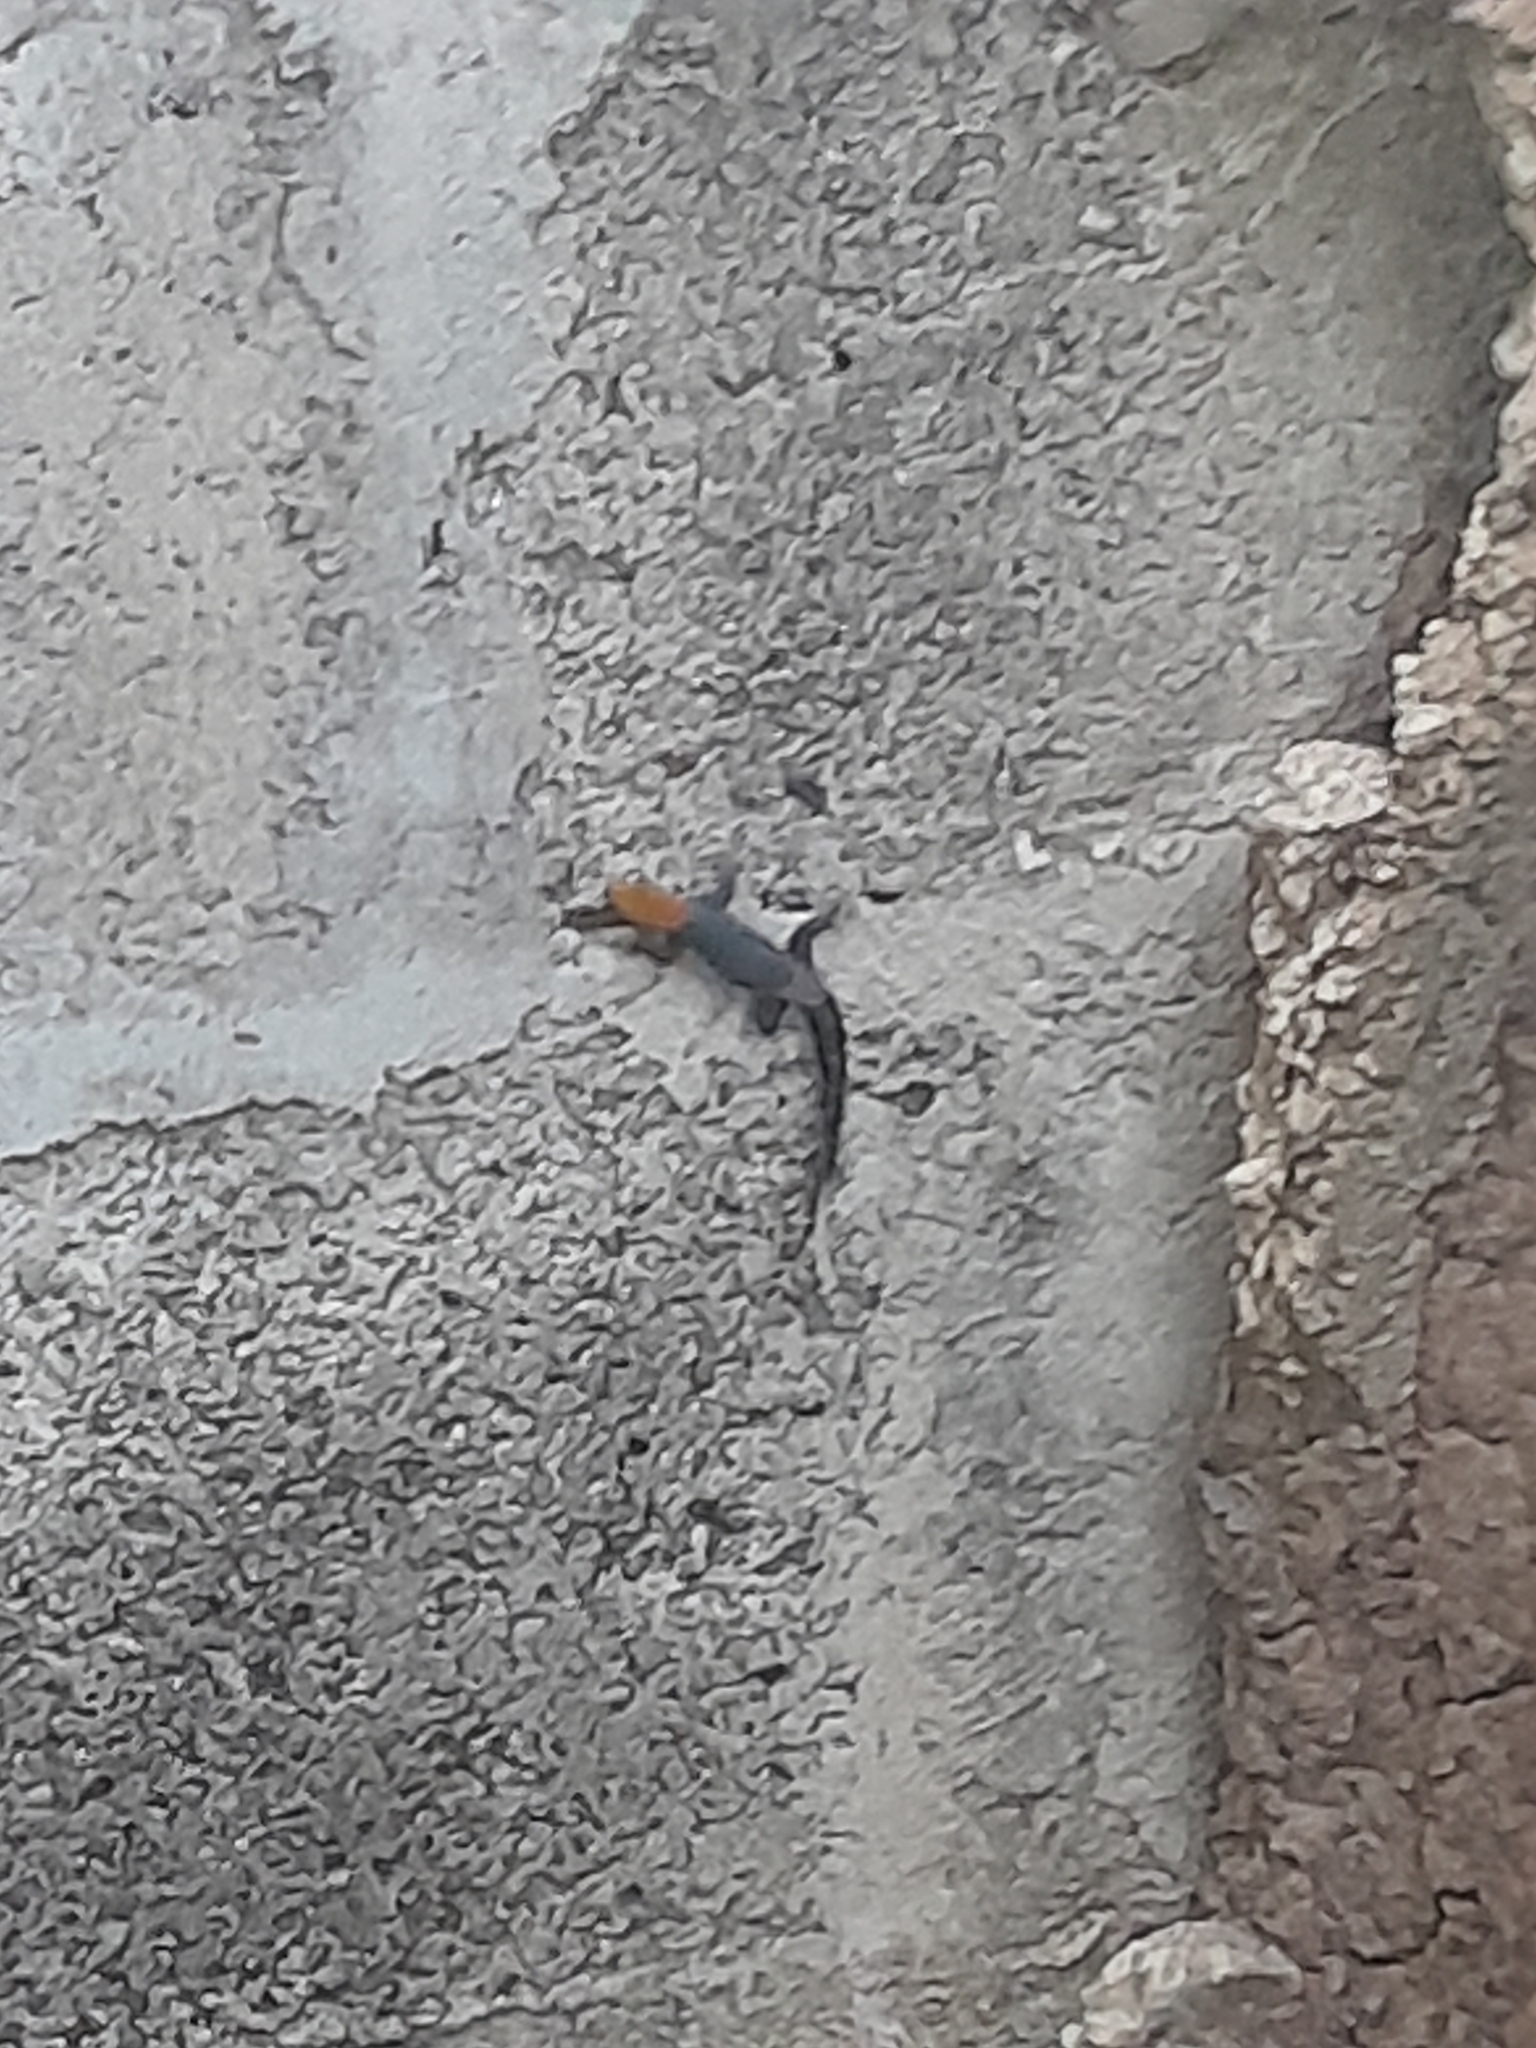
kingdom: Animalia
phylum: Chordata
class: Squamata
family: Sphaerodactylidae
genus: Gonatodes
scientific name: Gonatodes albogularis
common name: Yellow-headed gecko
